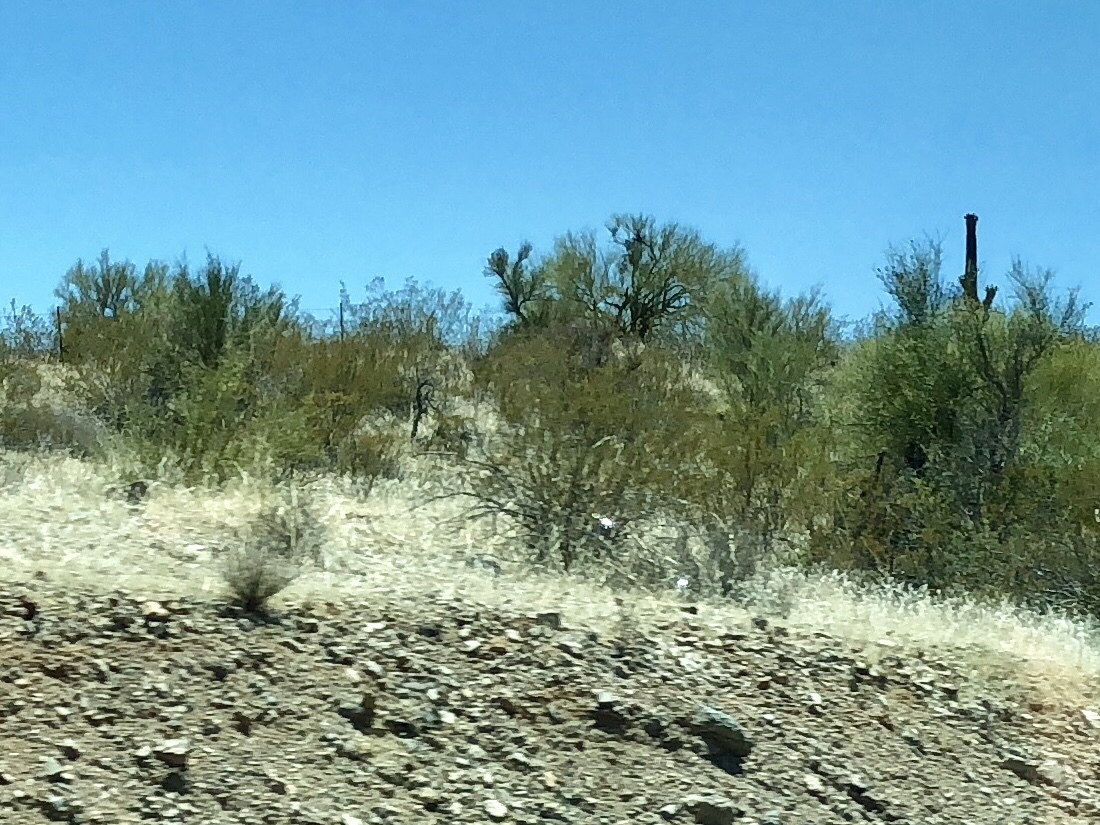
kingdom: Plantae
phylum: Tracheophyta
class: Magnoliopsida
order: Zygophyllales
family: Zygophyllaceae
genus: Larrea
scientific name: Larrea tridentata
